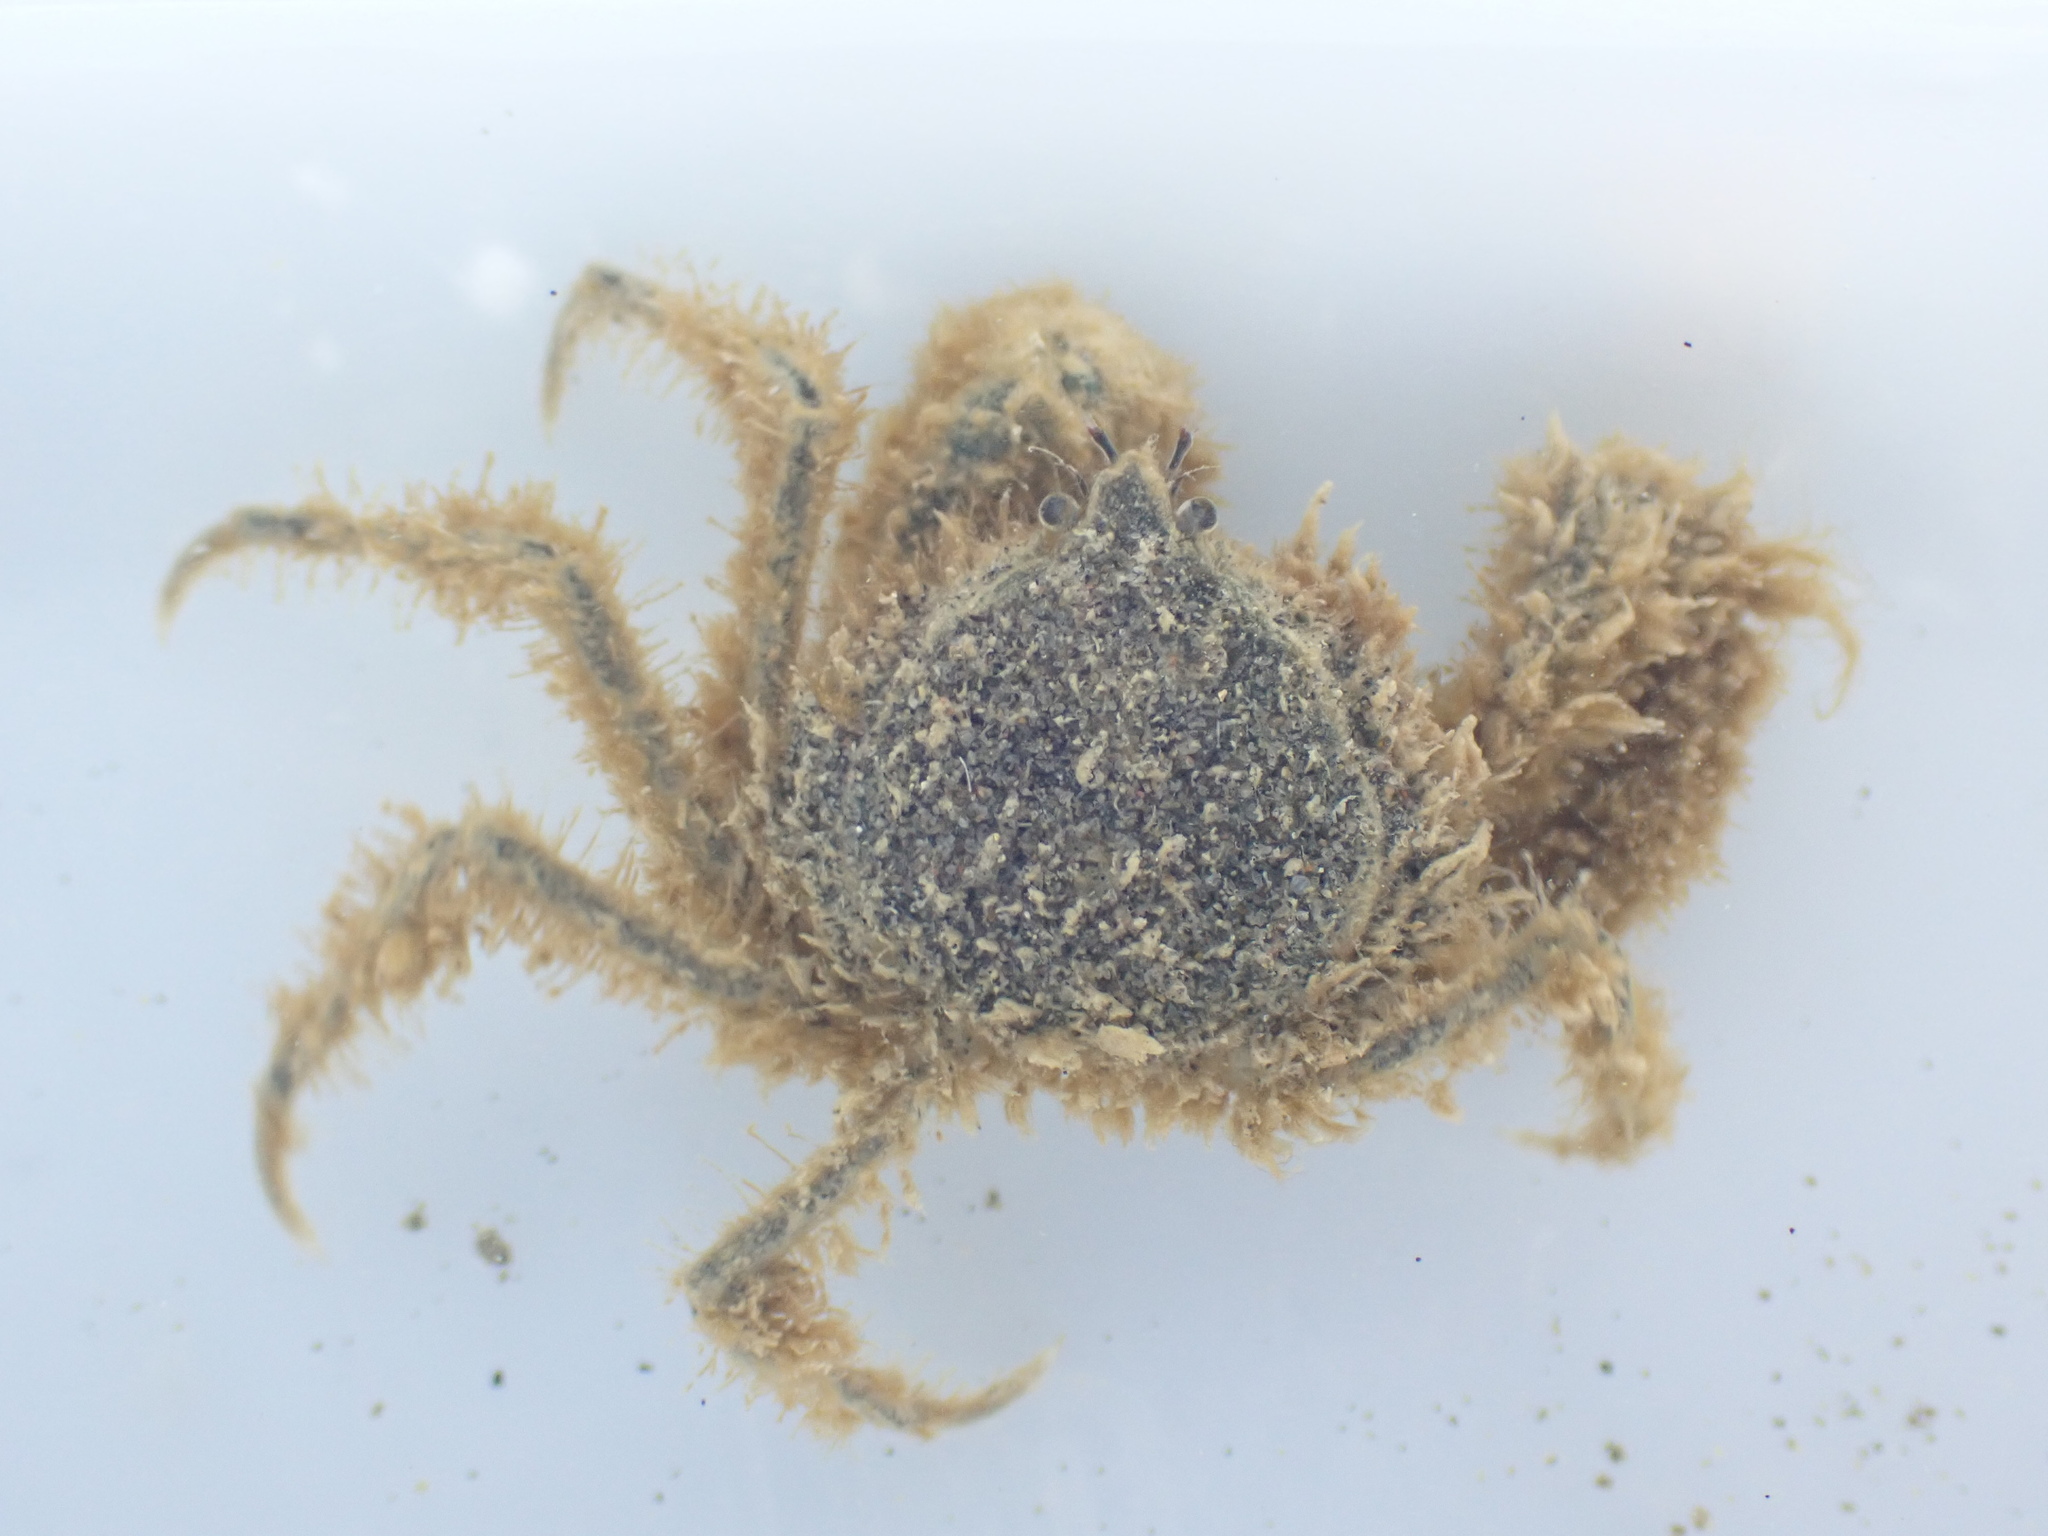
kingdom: Animalia
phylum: Arthropoda
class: Malacostraca
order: Decapoda
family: Hymenosomatidae
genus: Halicarcinus
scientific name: Halicarcinus whitei
